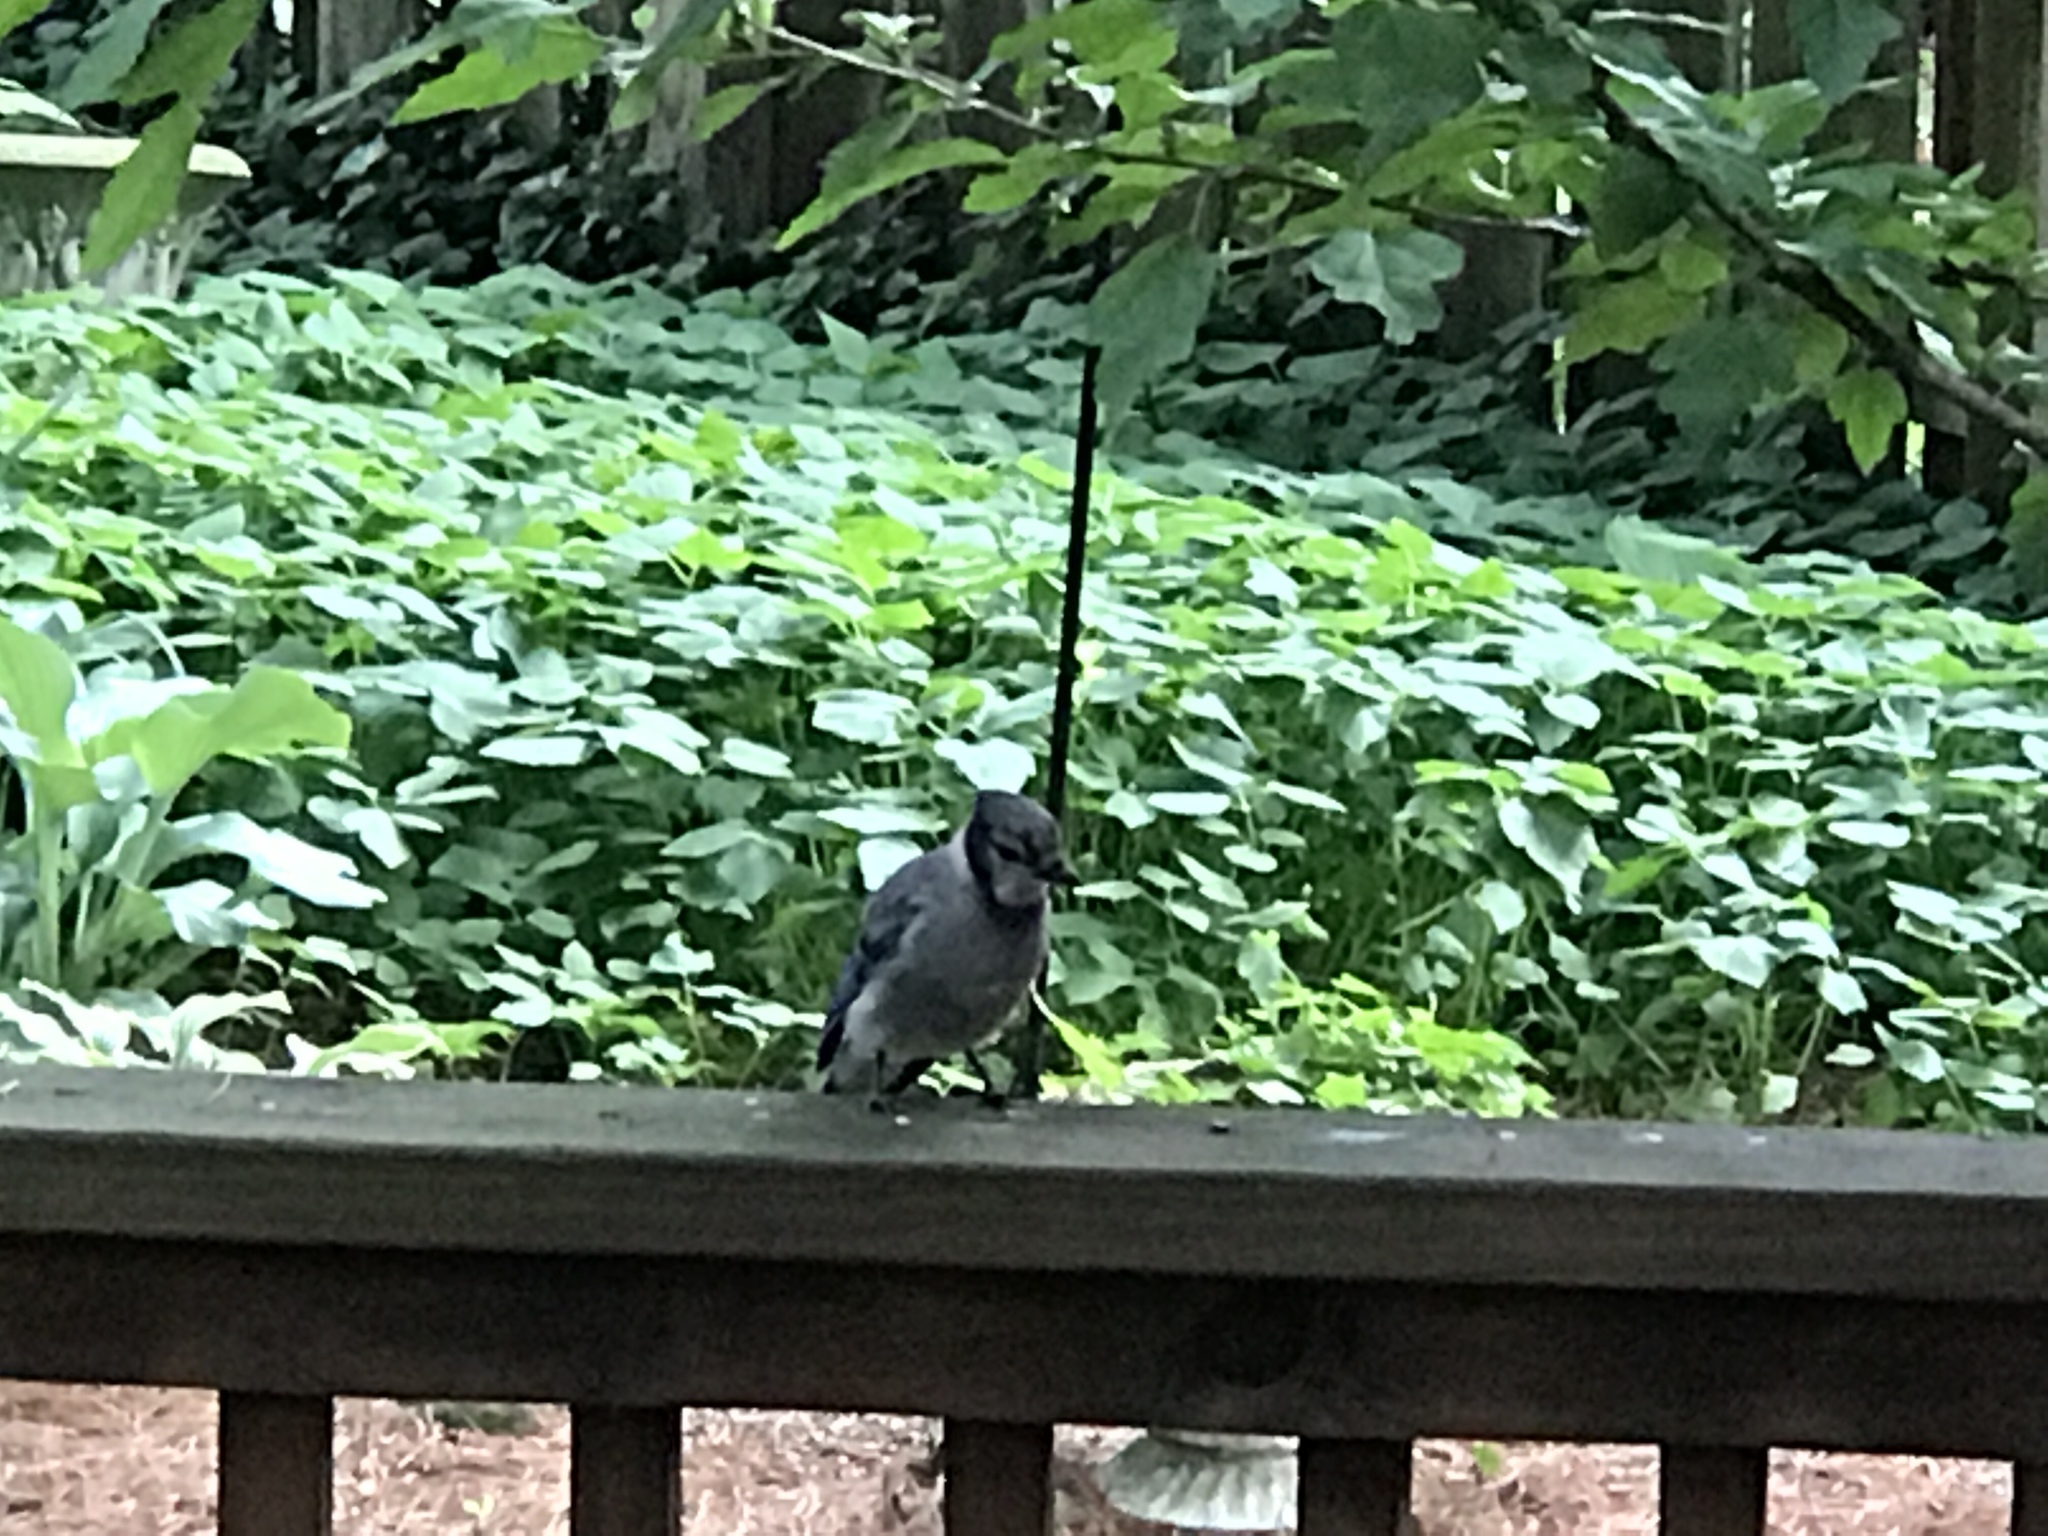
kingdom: Animalia
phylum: Chordata
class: Aves
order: Passeriformes
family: Corvidae
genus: Cyanocitta
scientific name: Cyanocitta cristata
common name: Blue jay
